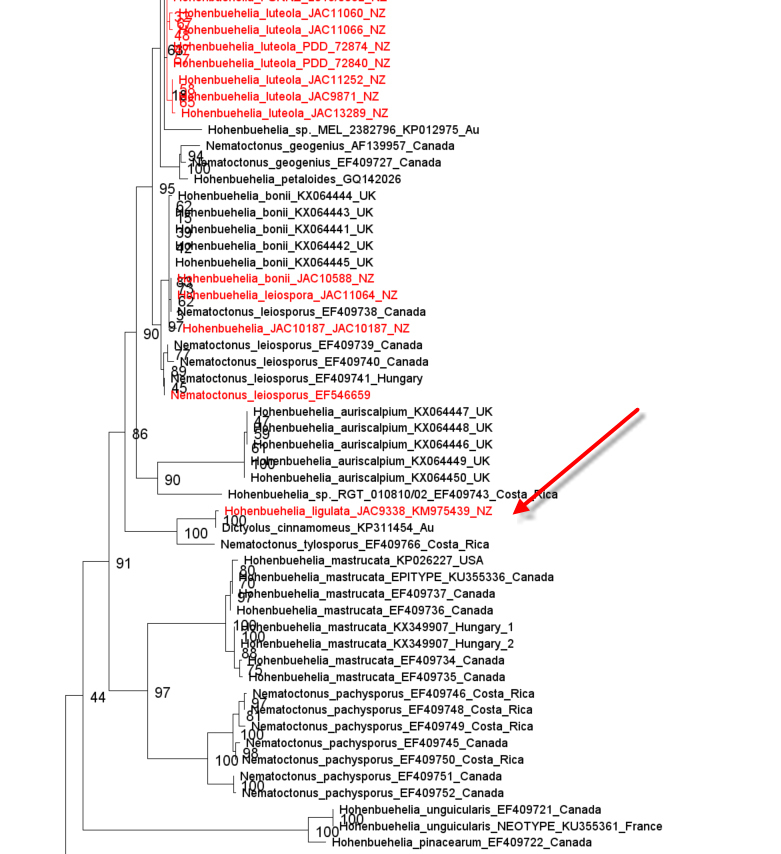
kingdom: Fungi
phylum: Basidiomycota
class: Agaricomycetes
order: Agaricales
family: Pleurotaceae
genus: Hohenbuehelia
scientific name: Hohenbuehelia ligulata
